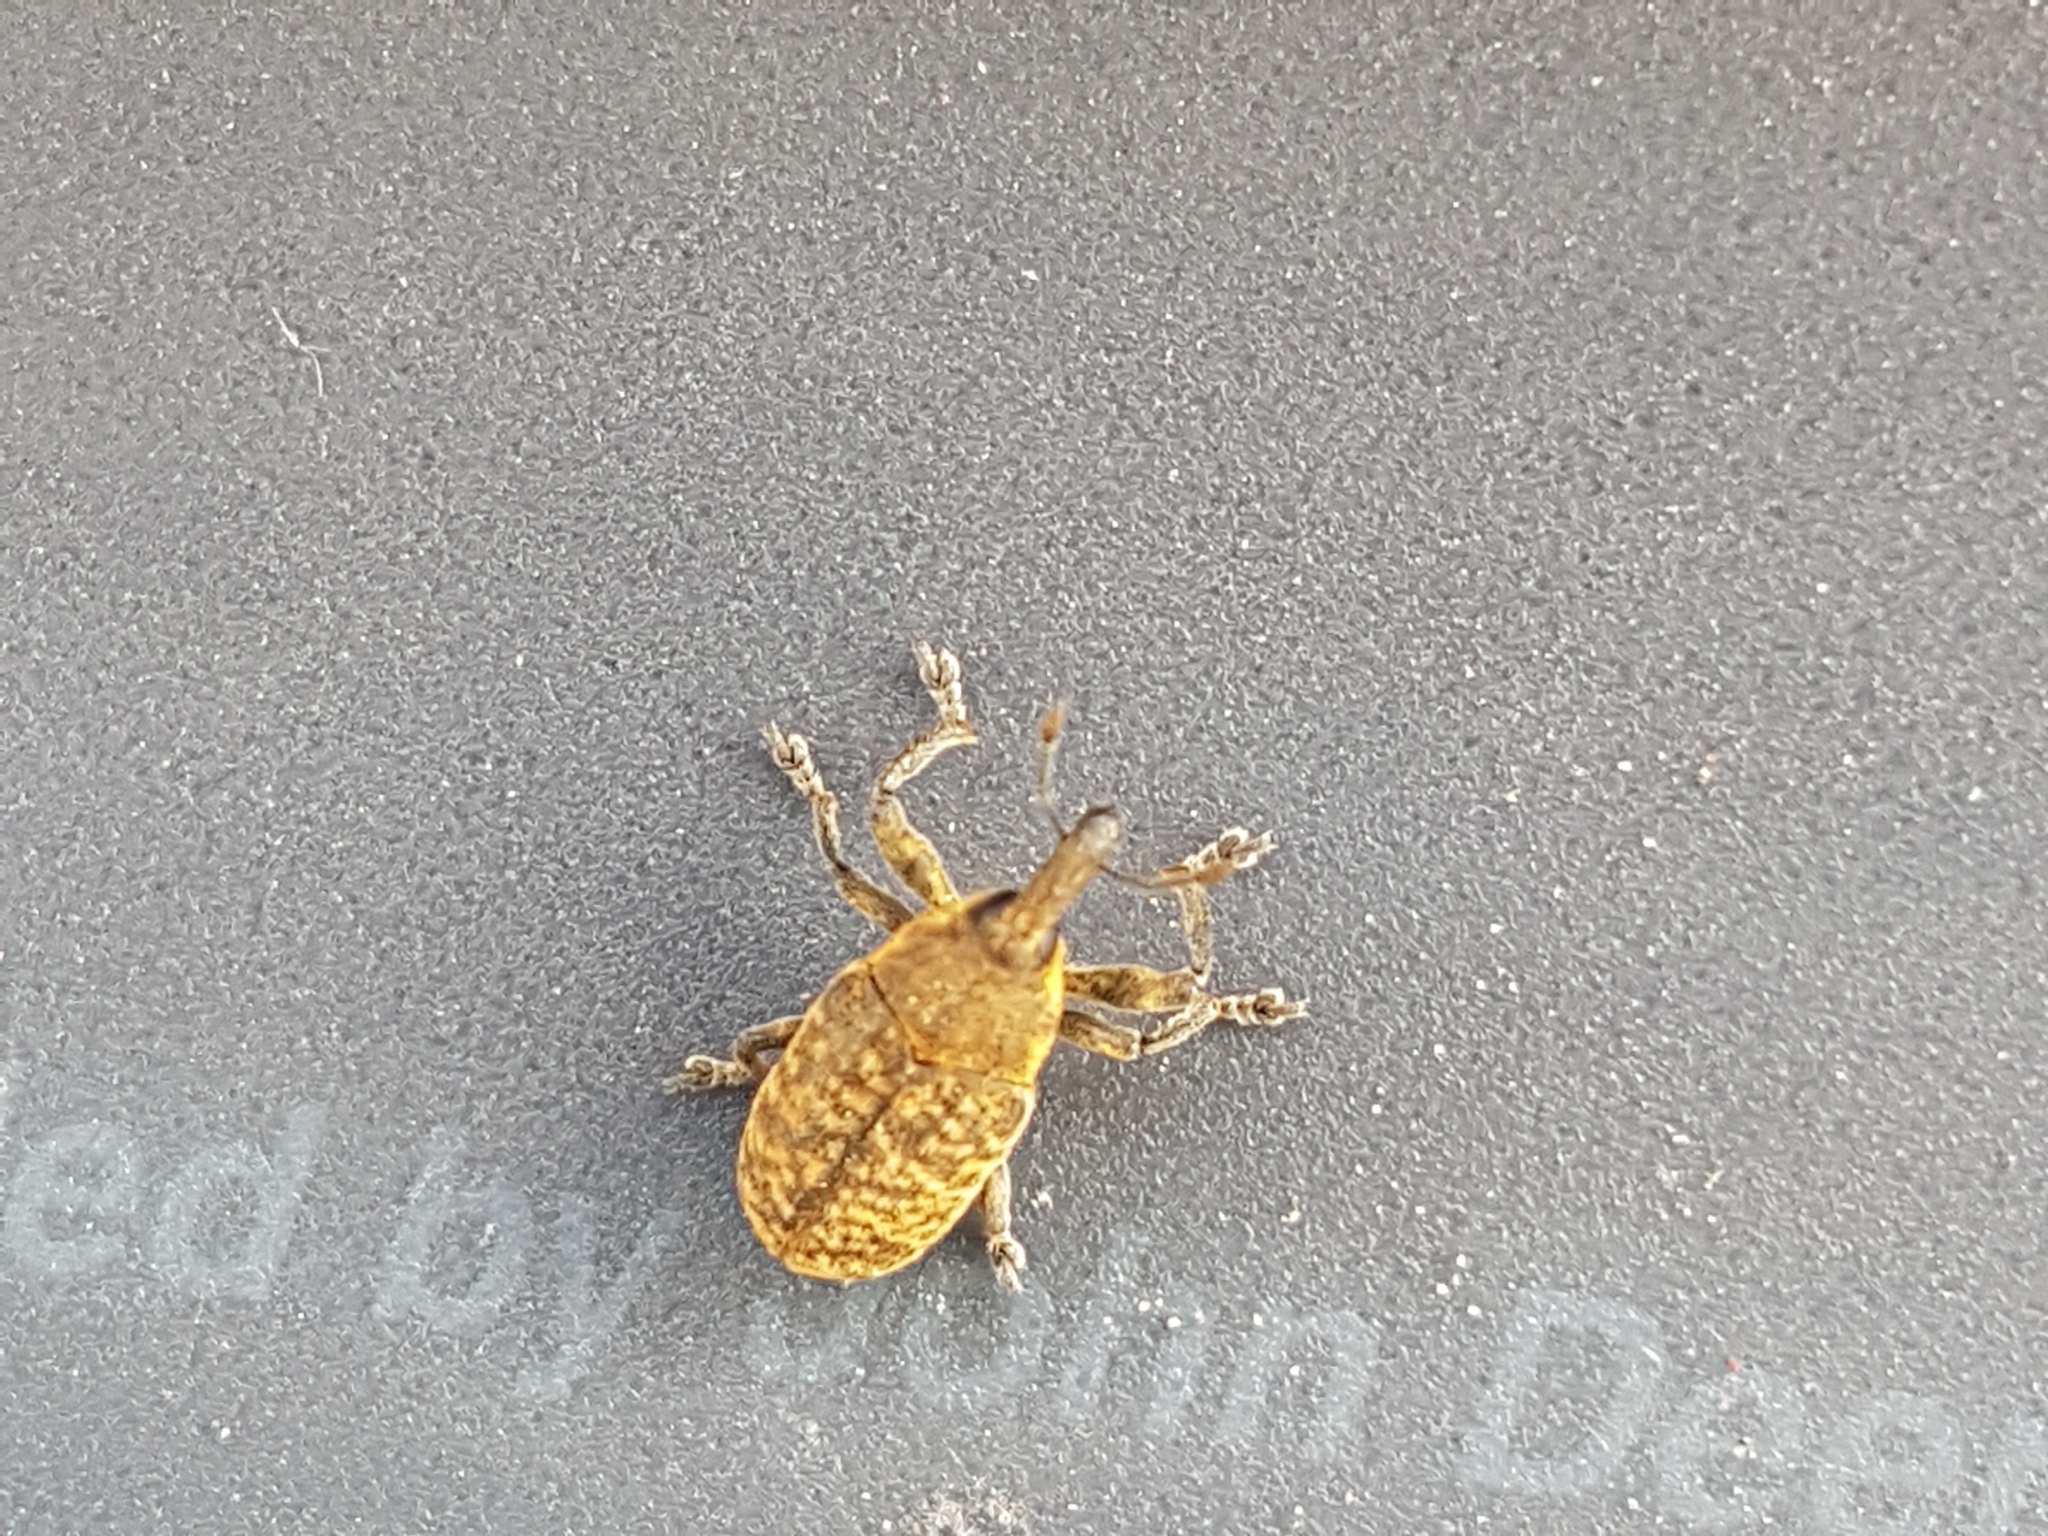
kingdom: Animalia
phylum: Arthropoda
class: Insecta
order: Coleoptera
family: Curculionidae
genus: Larinus
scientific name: Larinus carlinae
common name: Weevil
